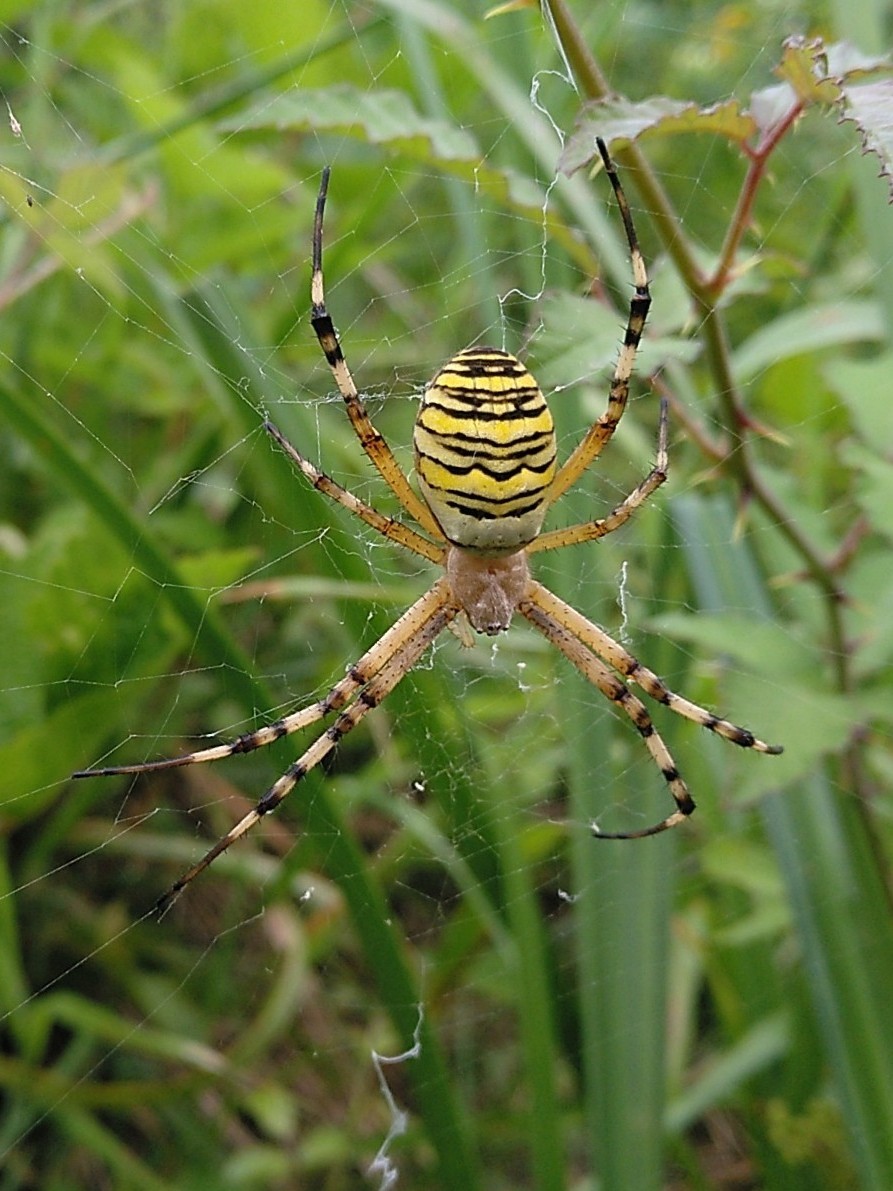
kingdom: Animalia
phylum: Arthropoda
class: Arachnida
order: Araneae
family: Araneidae
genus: Argiope
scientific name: Argiope bruennichi
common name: Wasp spider
